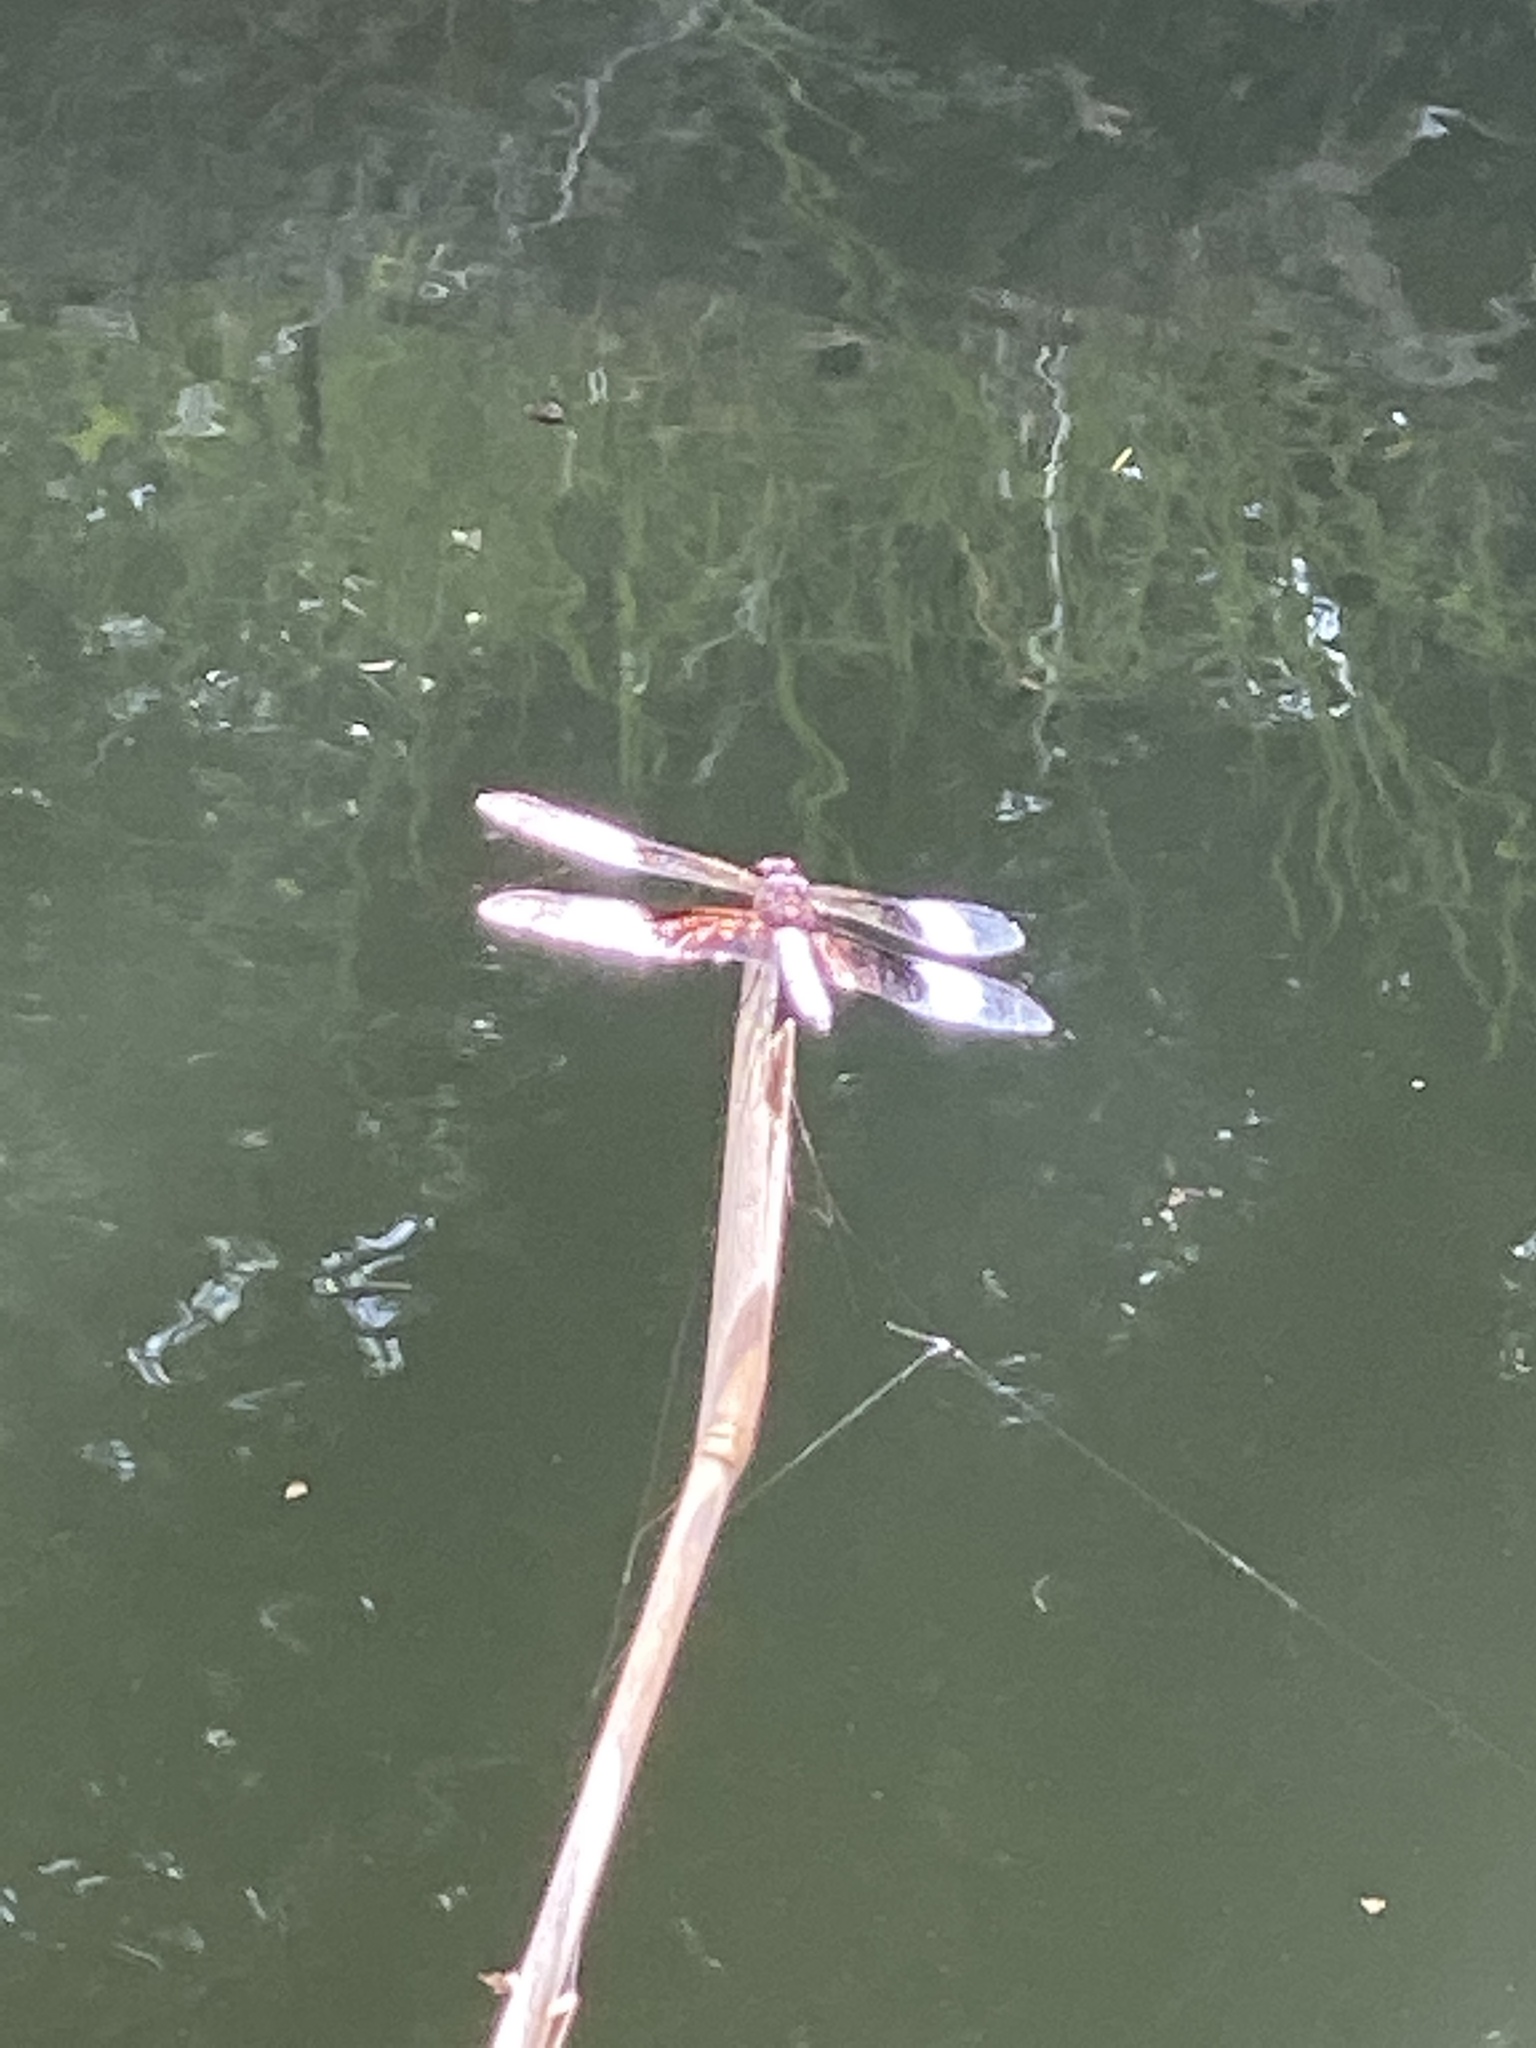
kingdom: Animalia
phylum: Arthropoda
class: Insecta
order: Odonata
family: Libellulidae
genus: Libellula
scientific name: Libellula luctuosa
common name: Widow skimmer
